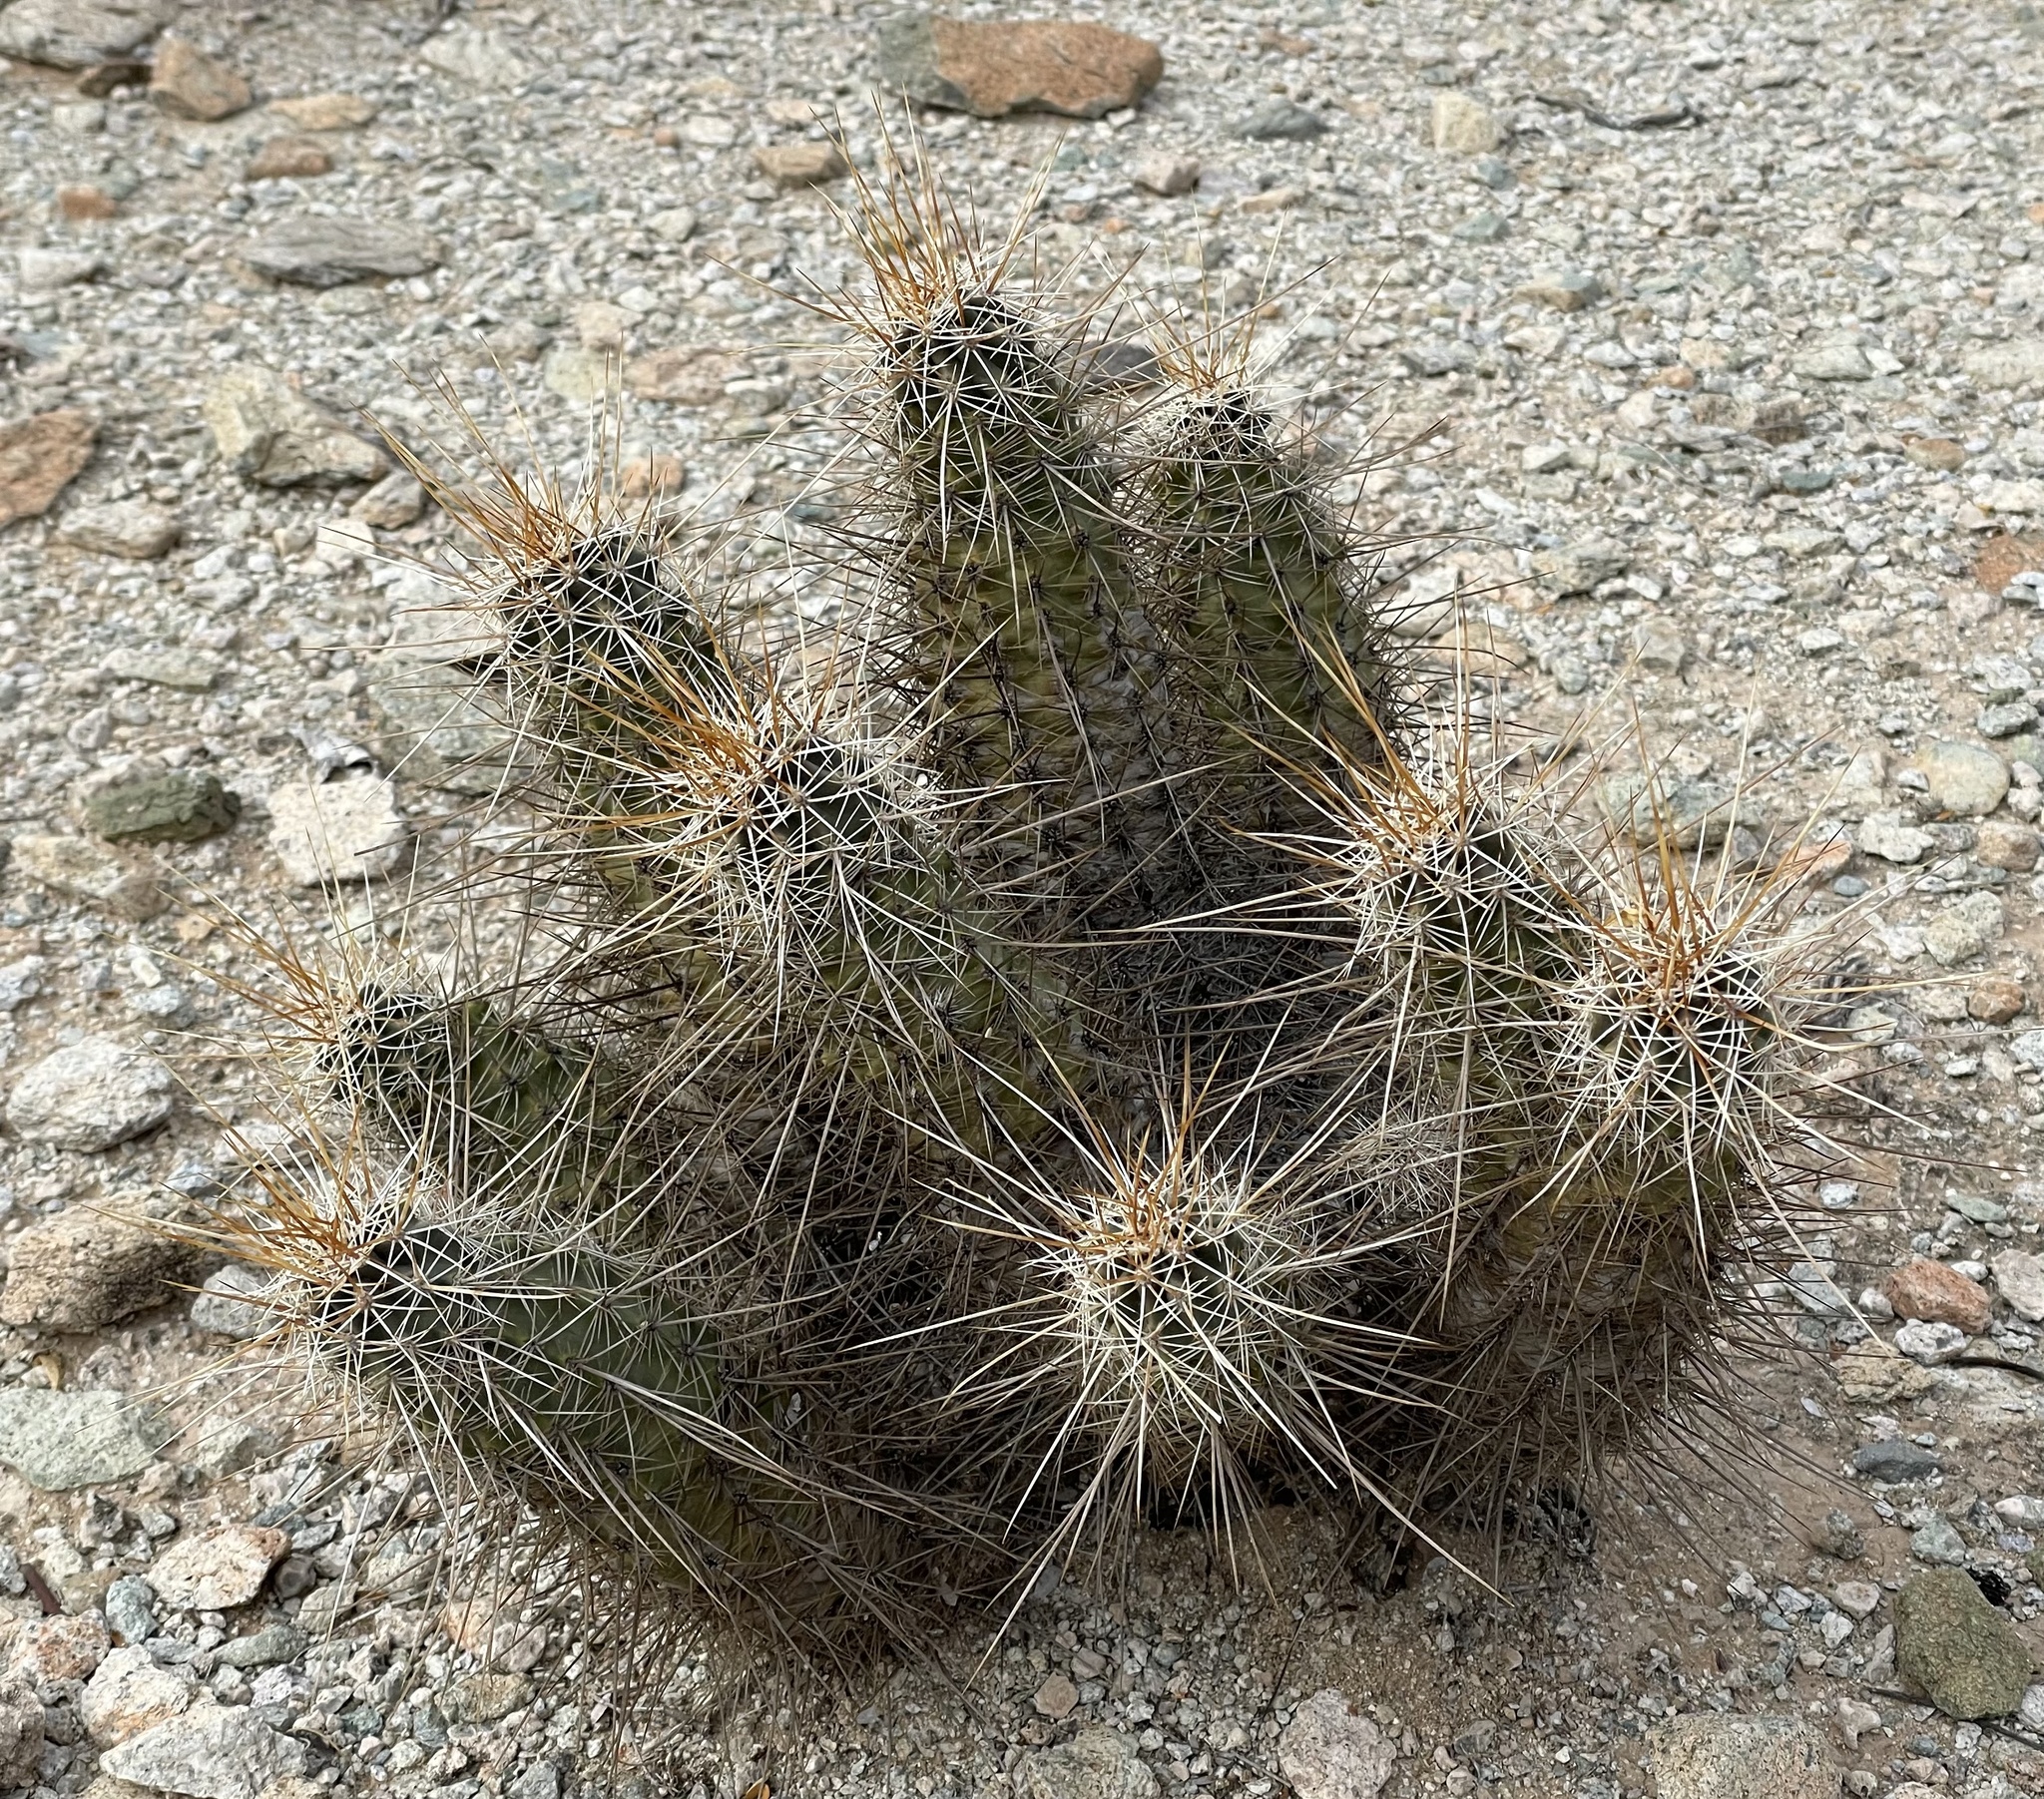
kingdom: Plantae
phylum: Tracheophyta
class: Magnoliopsida
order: Caryophyllales
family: Cactaceae
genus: Echinocereus
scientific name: Echinocereus engelmannii
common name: Engelmann's hedgehog cactus
